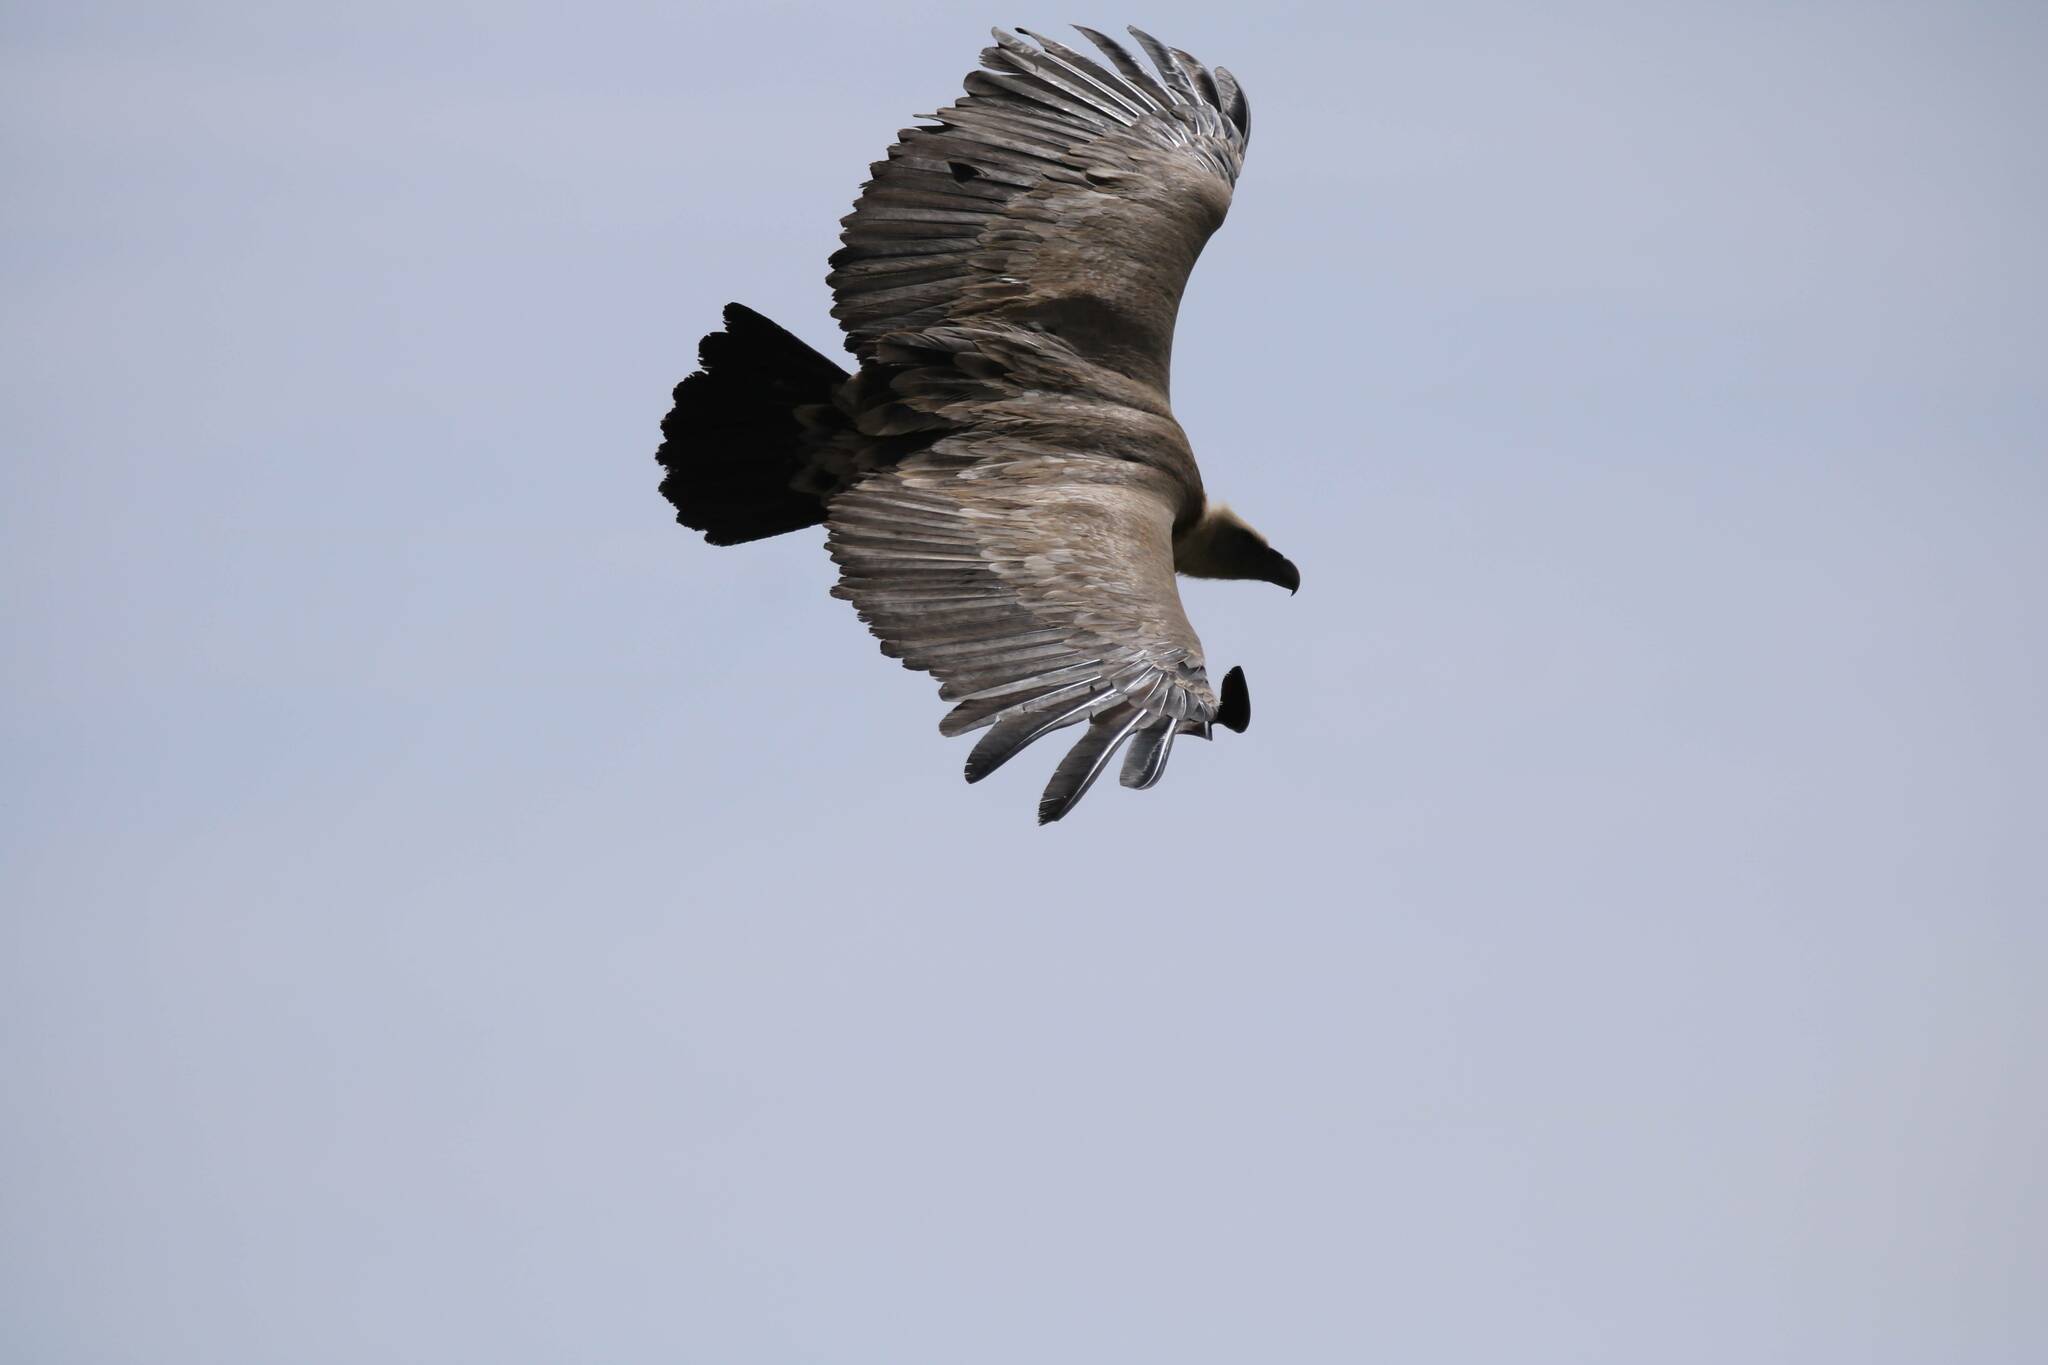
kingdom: Animalia
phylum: Chordata
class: Aves
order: Accipitriformes
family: Accipitridae
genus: Gyps
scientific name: Gyps fulvus
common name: Griffon vulture
